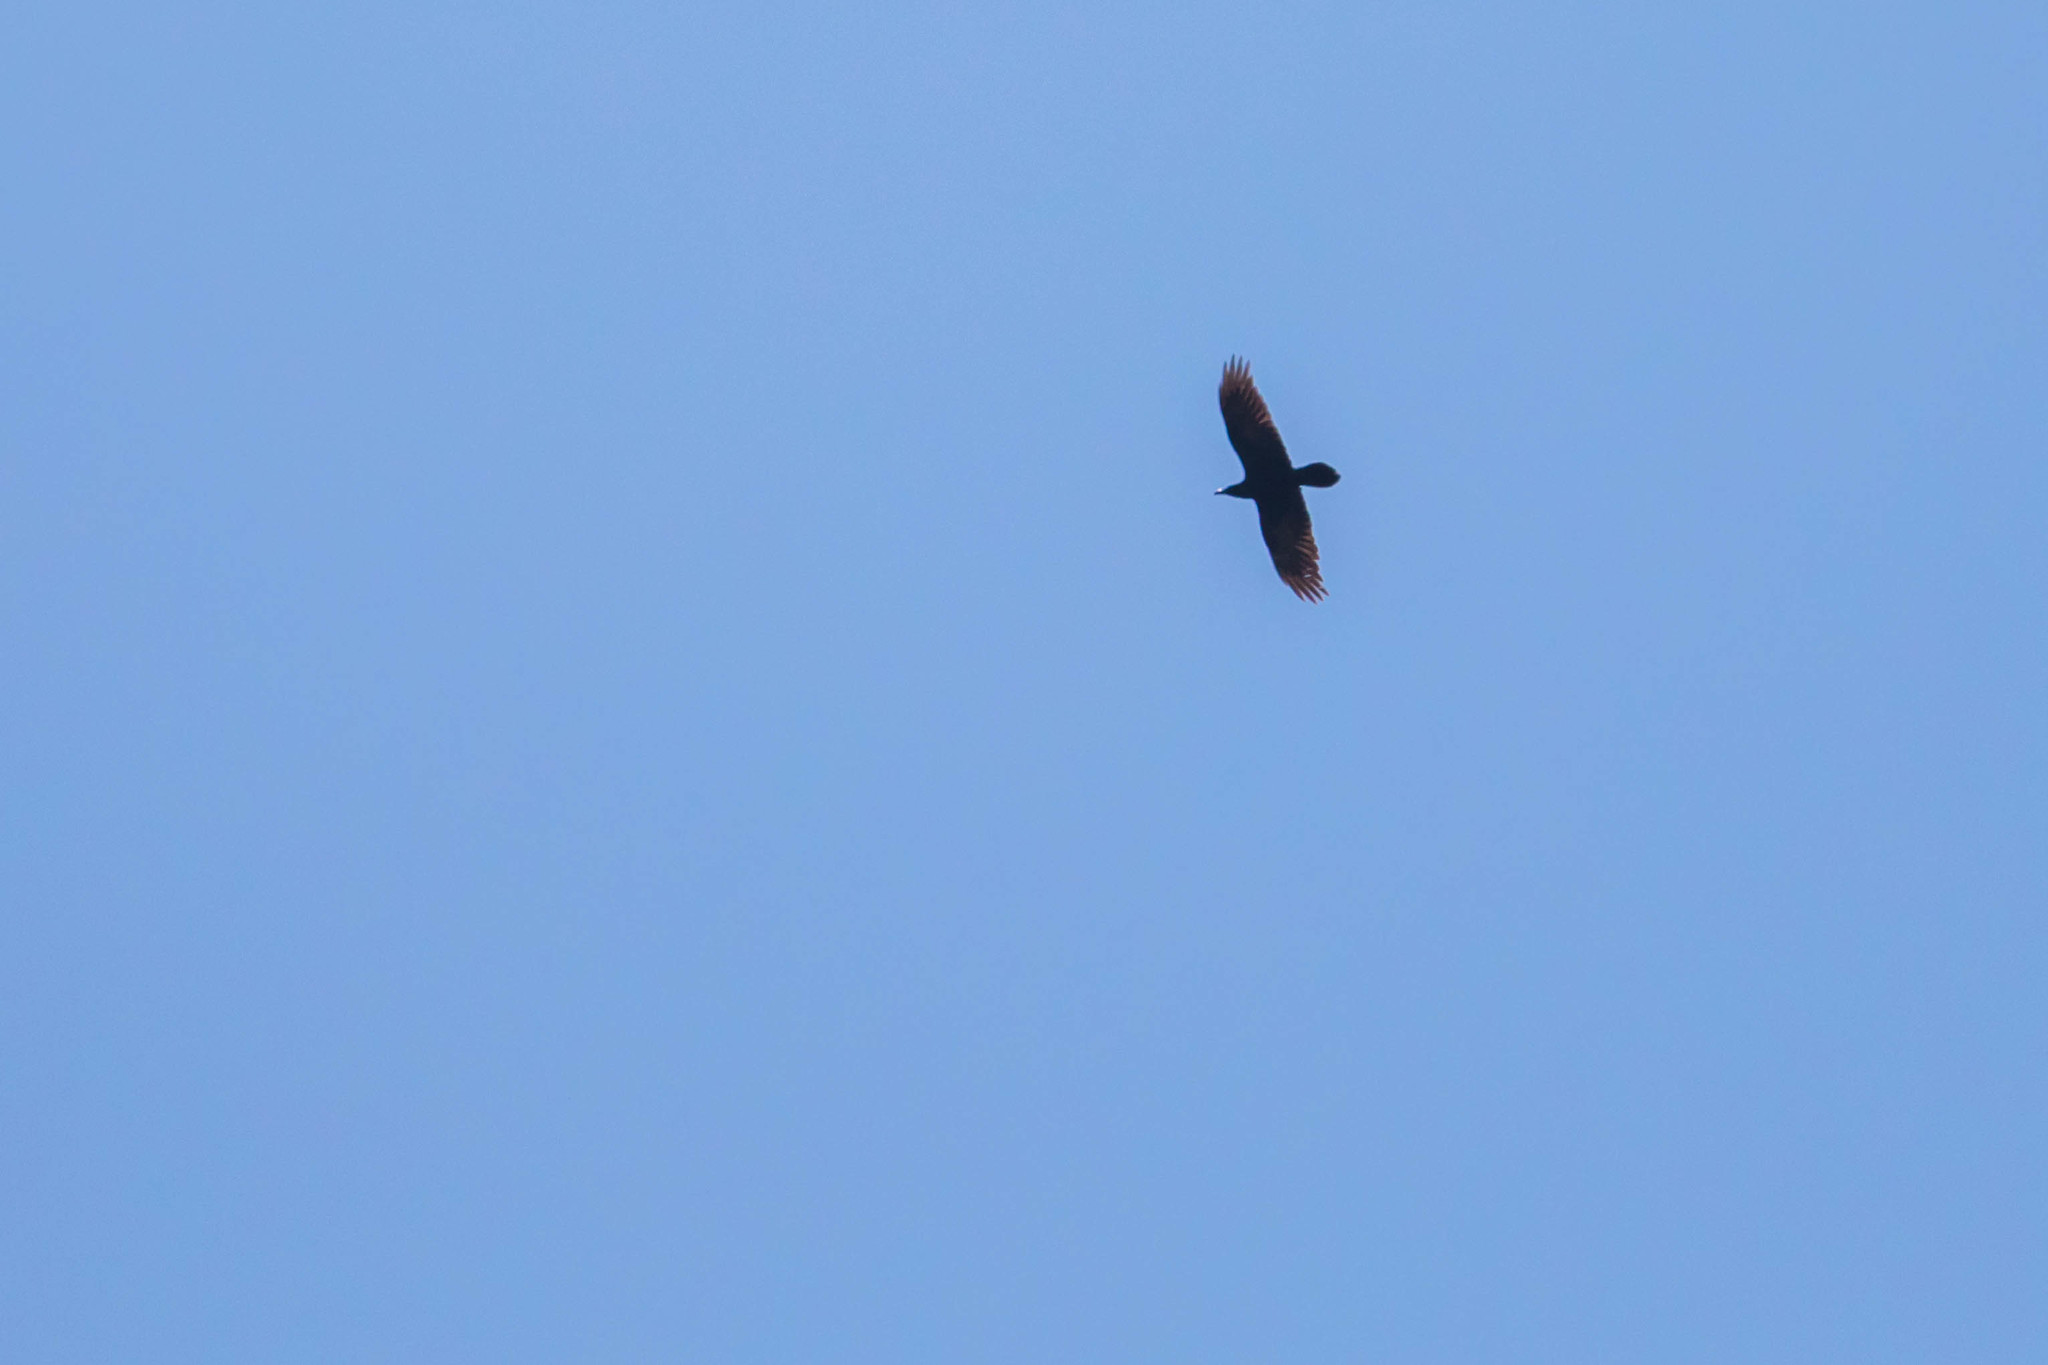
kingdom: Animalia
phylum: Chordata
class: Aves
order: Passeriformes
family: Corvidae
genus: Corvus
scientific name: Corvus corax
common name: Common raven
